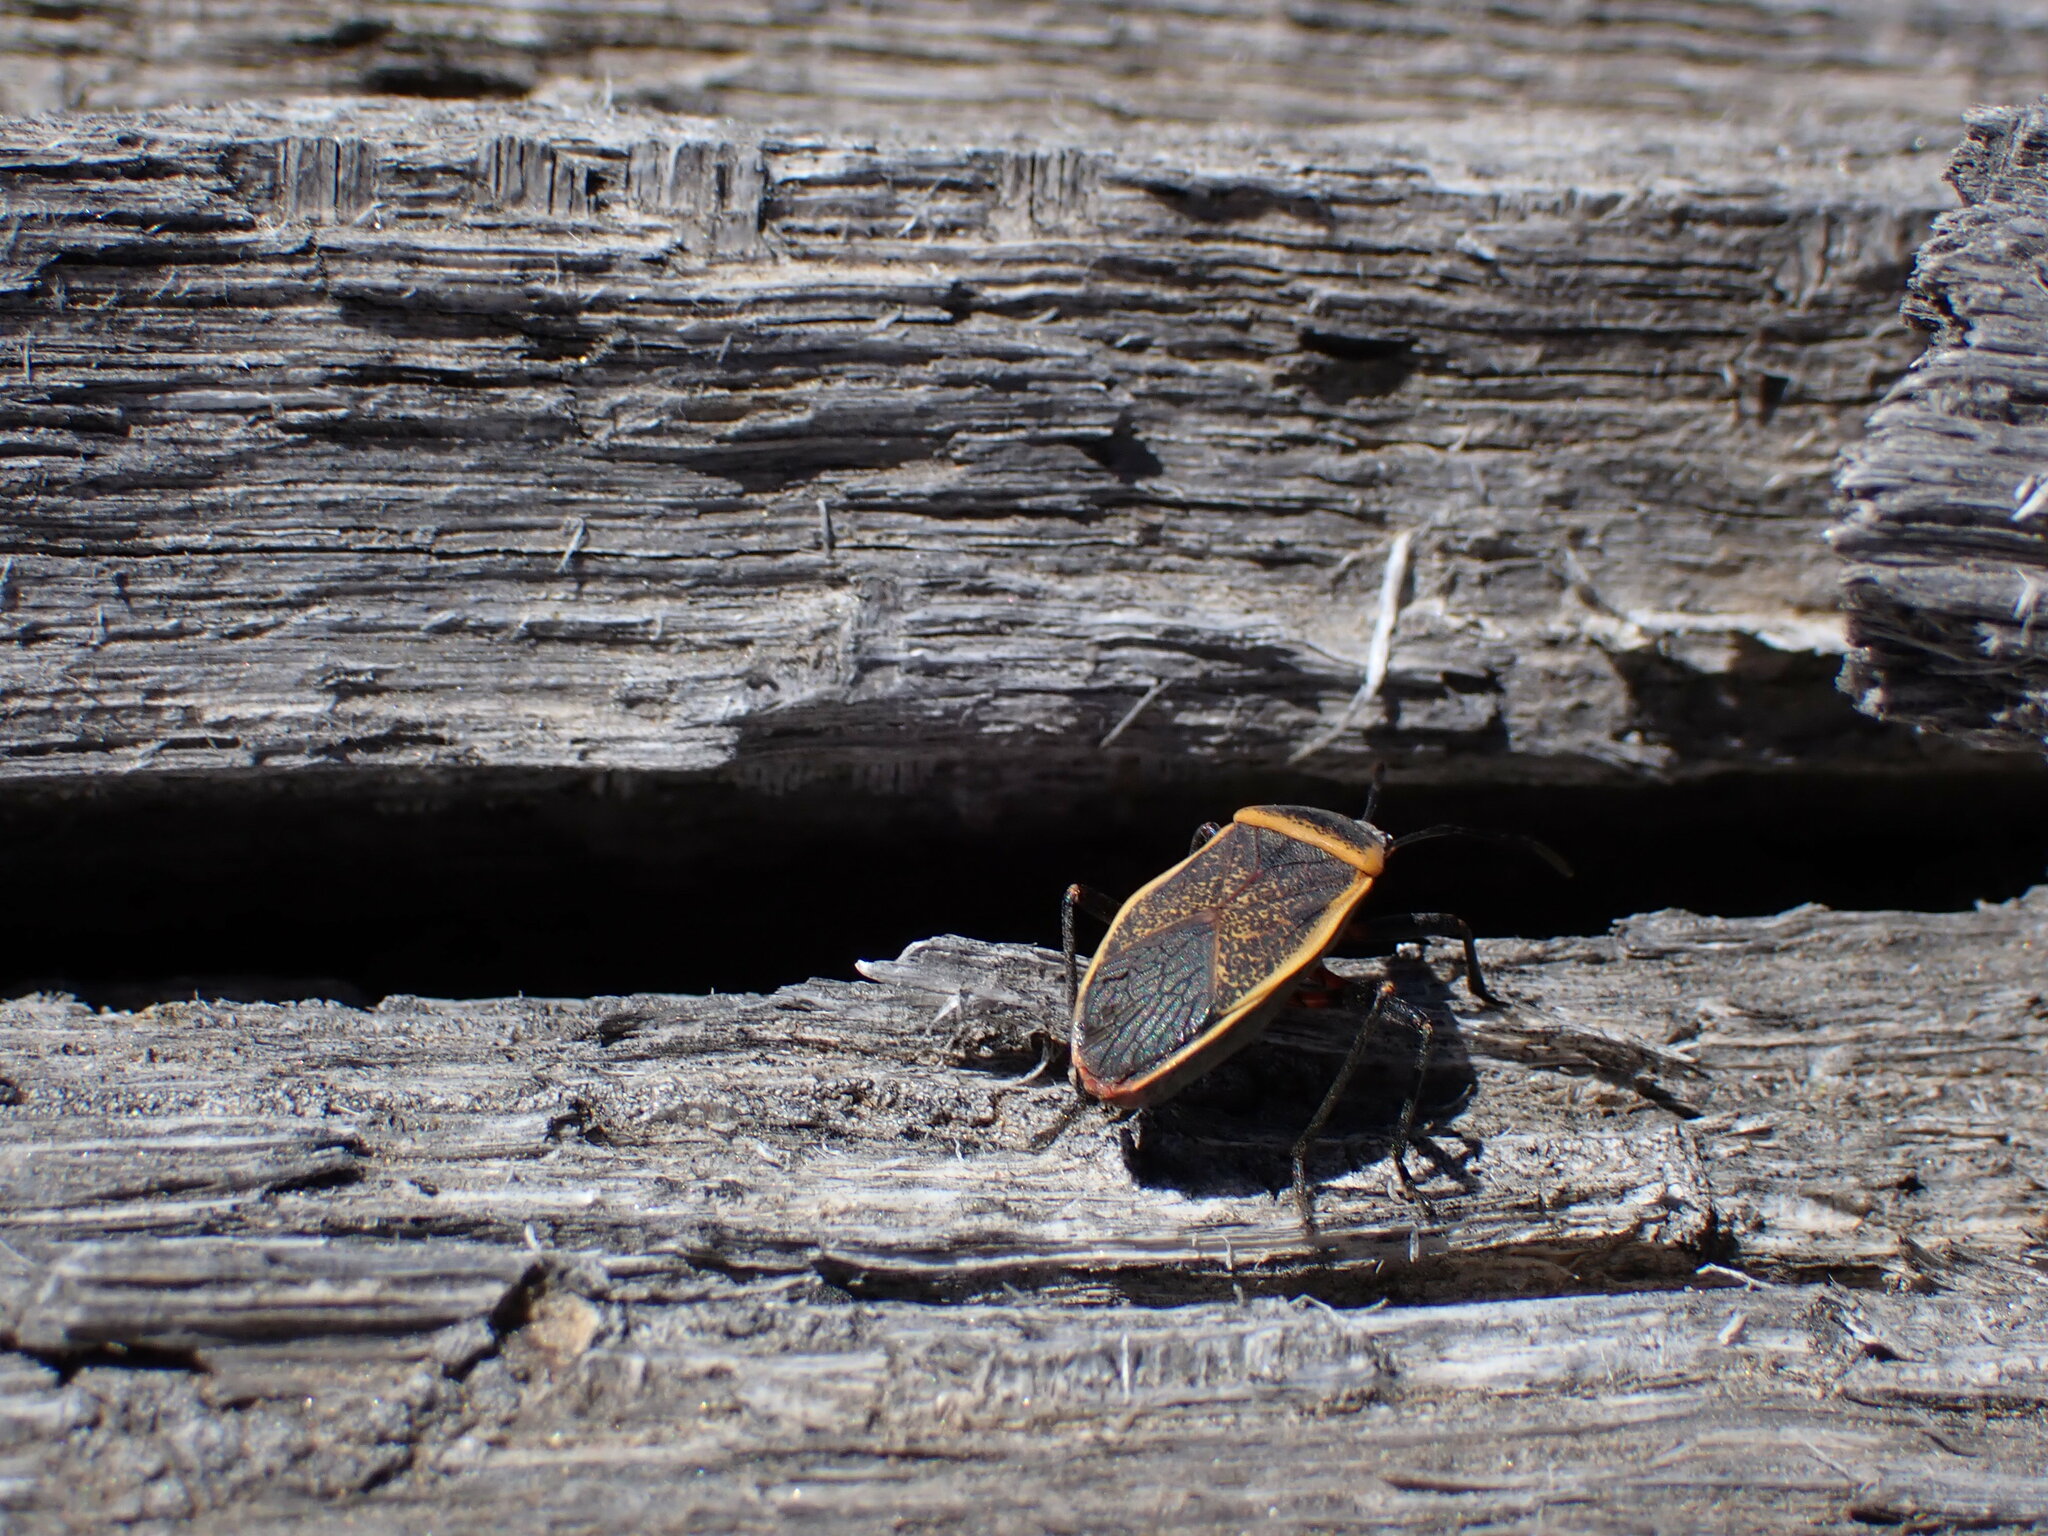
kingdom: Animalia
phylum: Arthropoda
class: Insecta
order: Hemiptera
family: Largidae
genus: Largus
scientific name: Largus californicus
